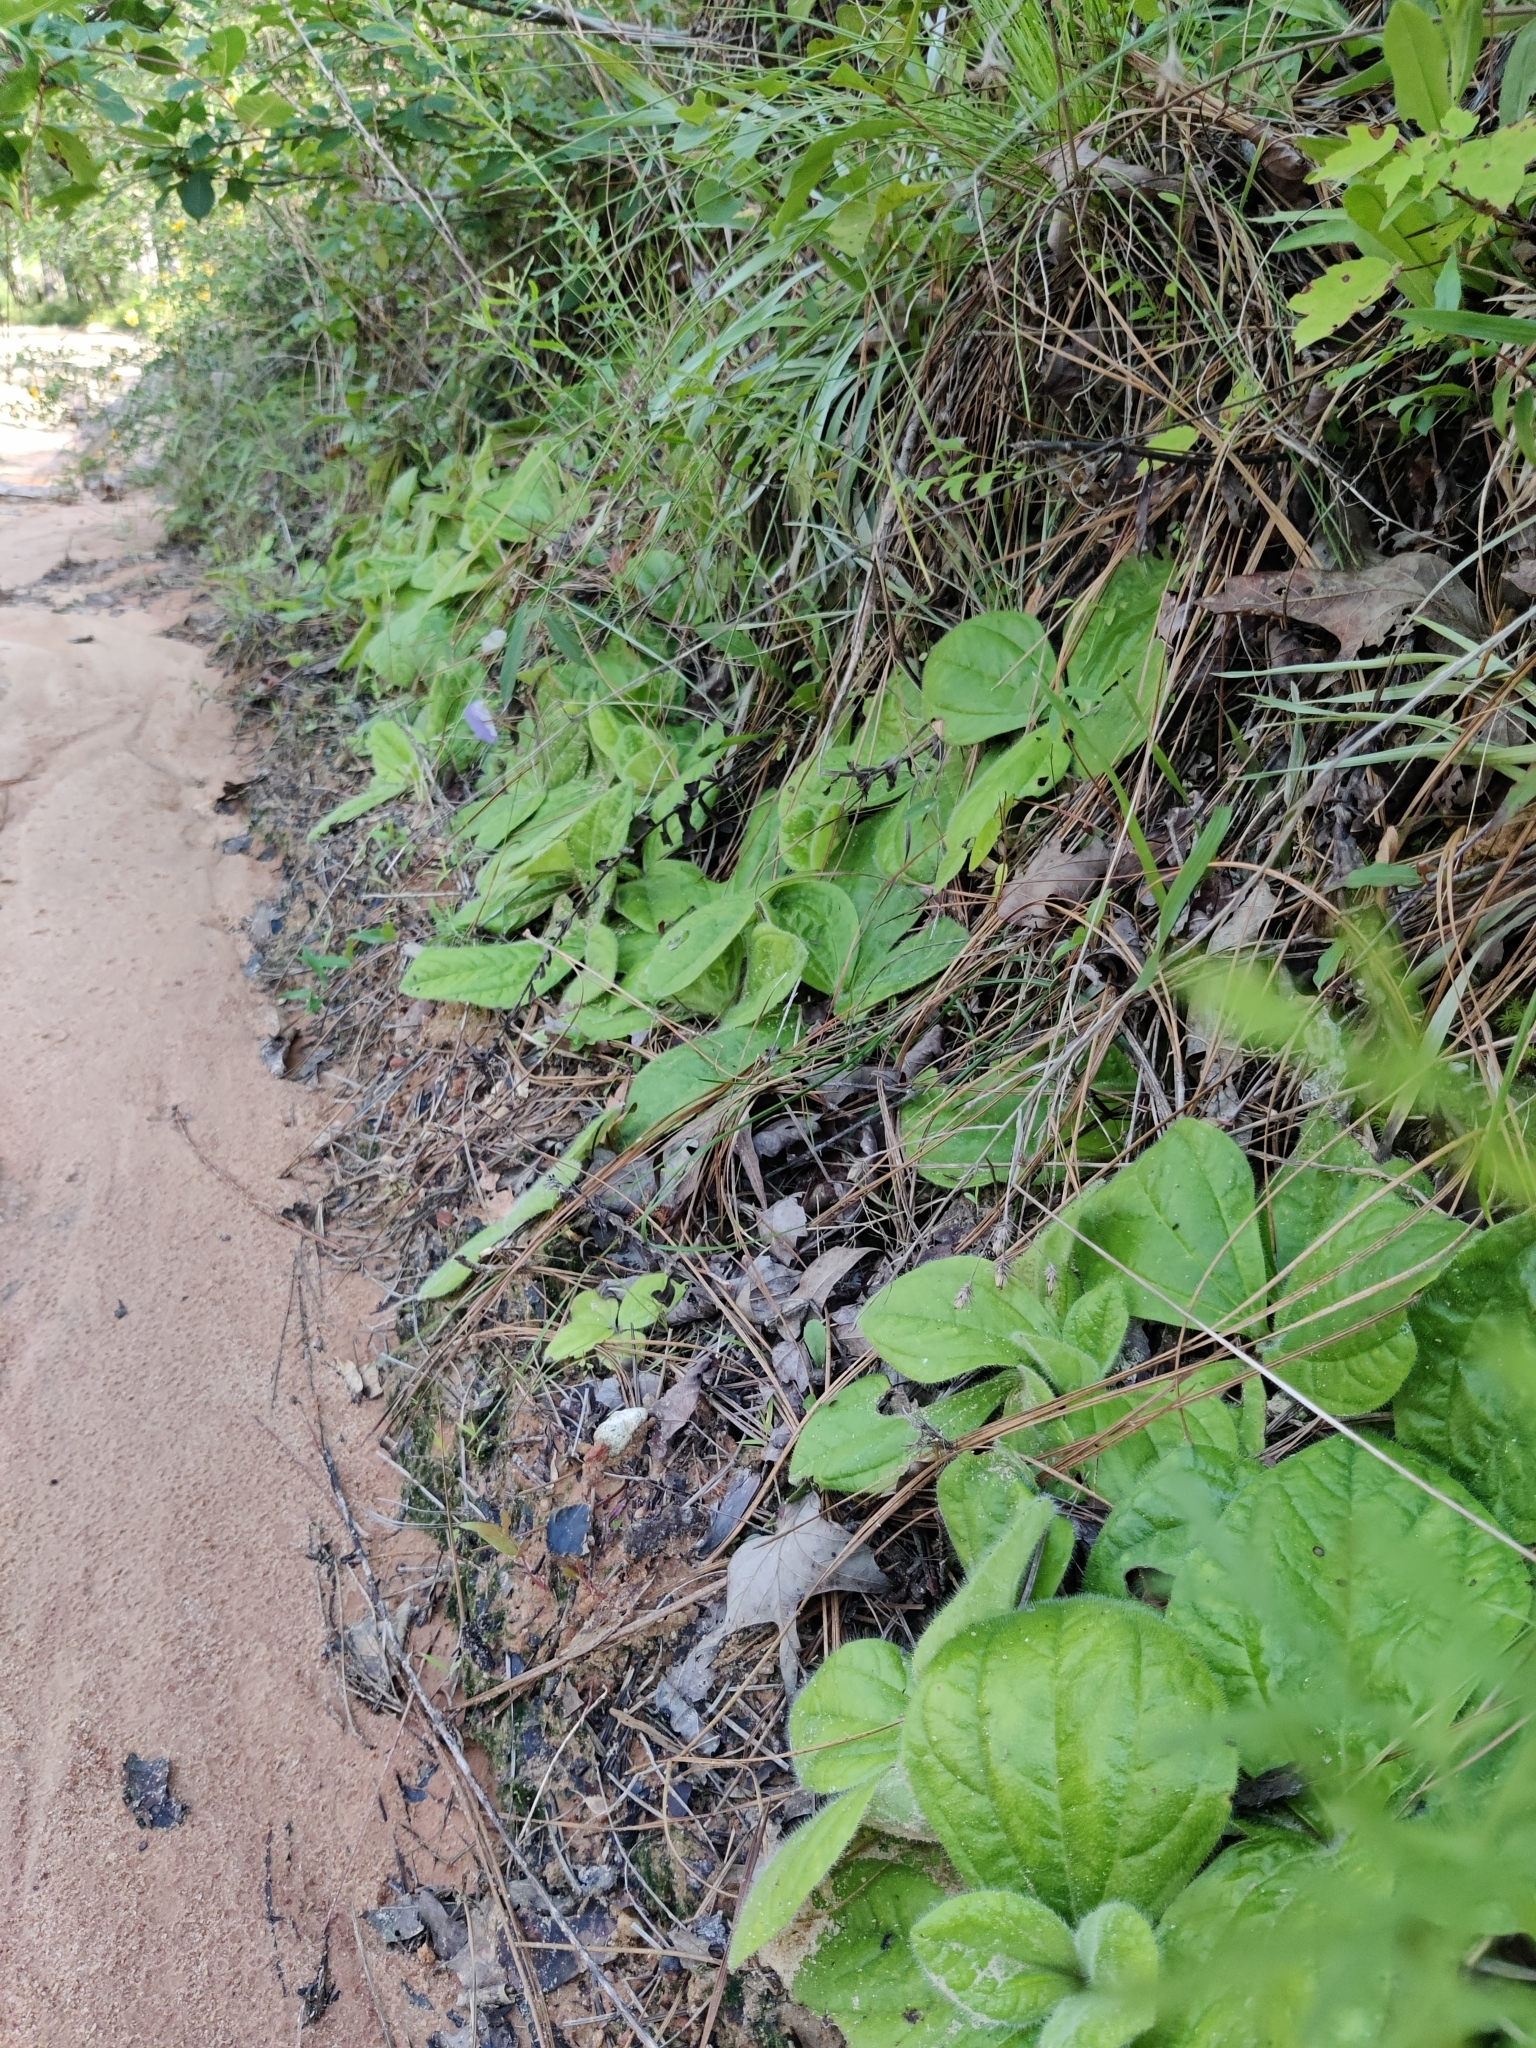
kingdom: Plantae
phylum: Tracheophyta
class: Magnoliopsida
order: Asterales
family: Asteraceae
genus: Helianthus
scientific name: Helianthus radula
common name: Pineland sunflower
